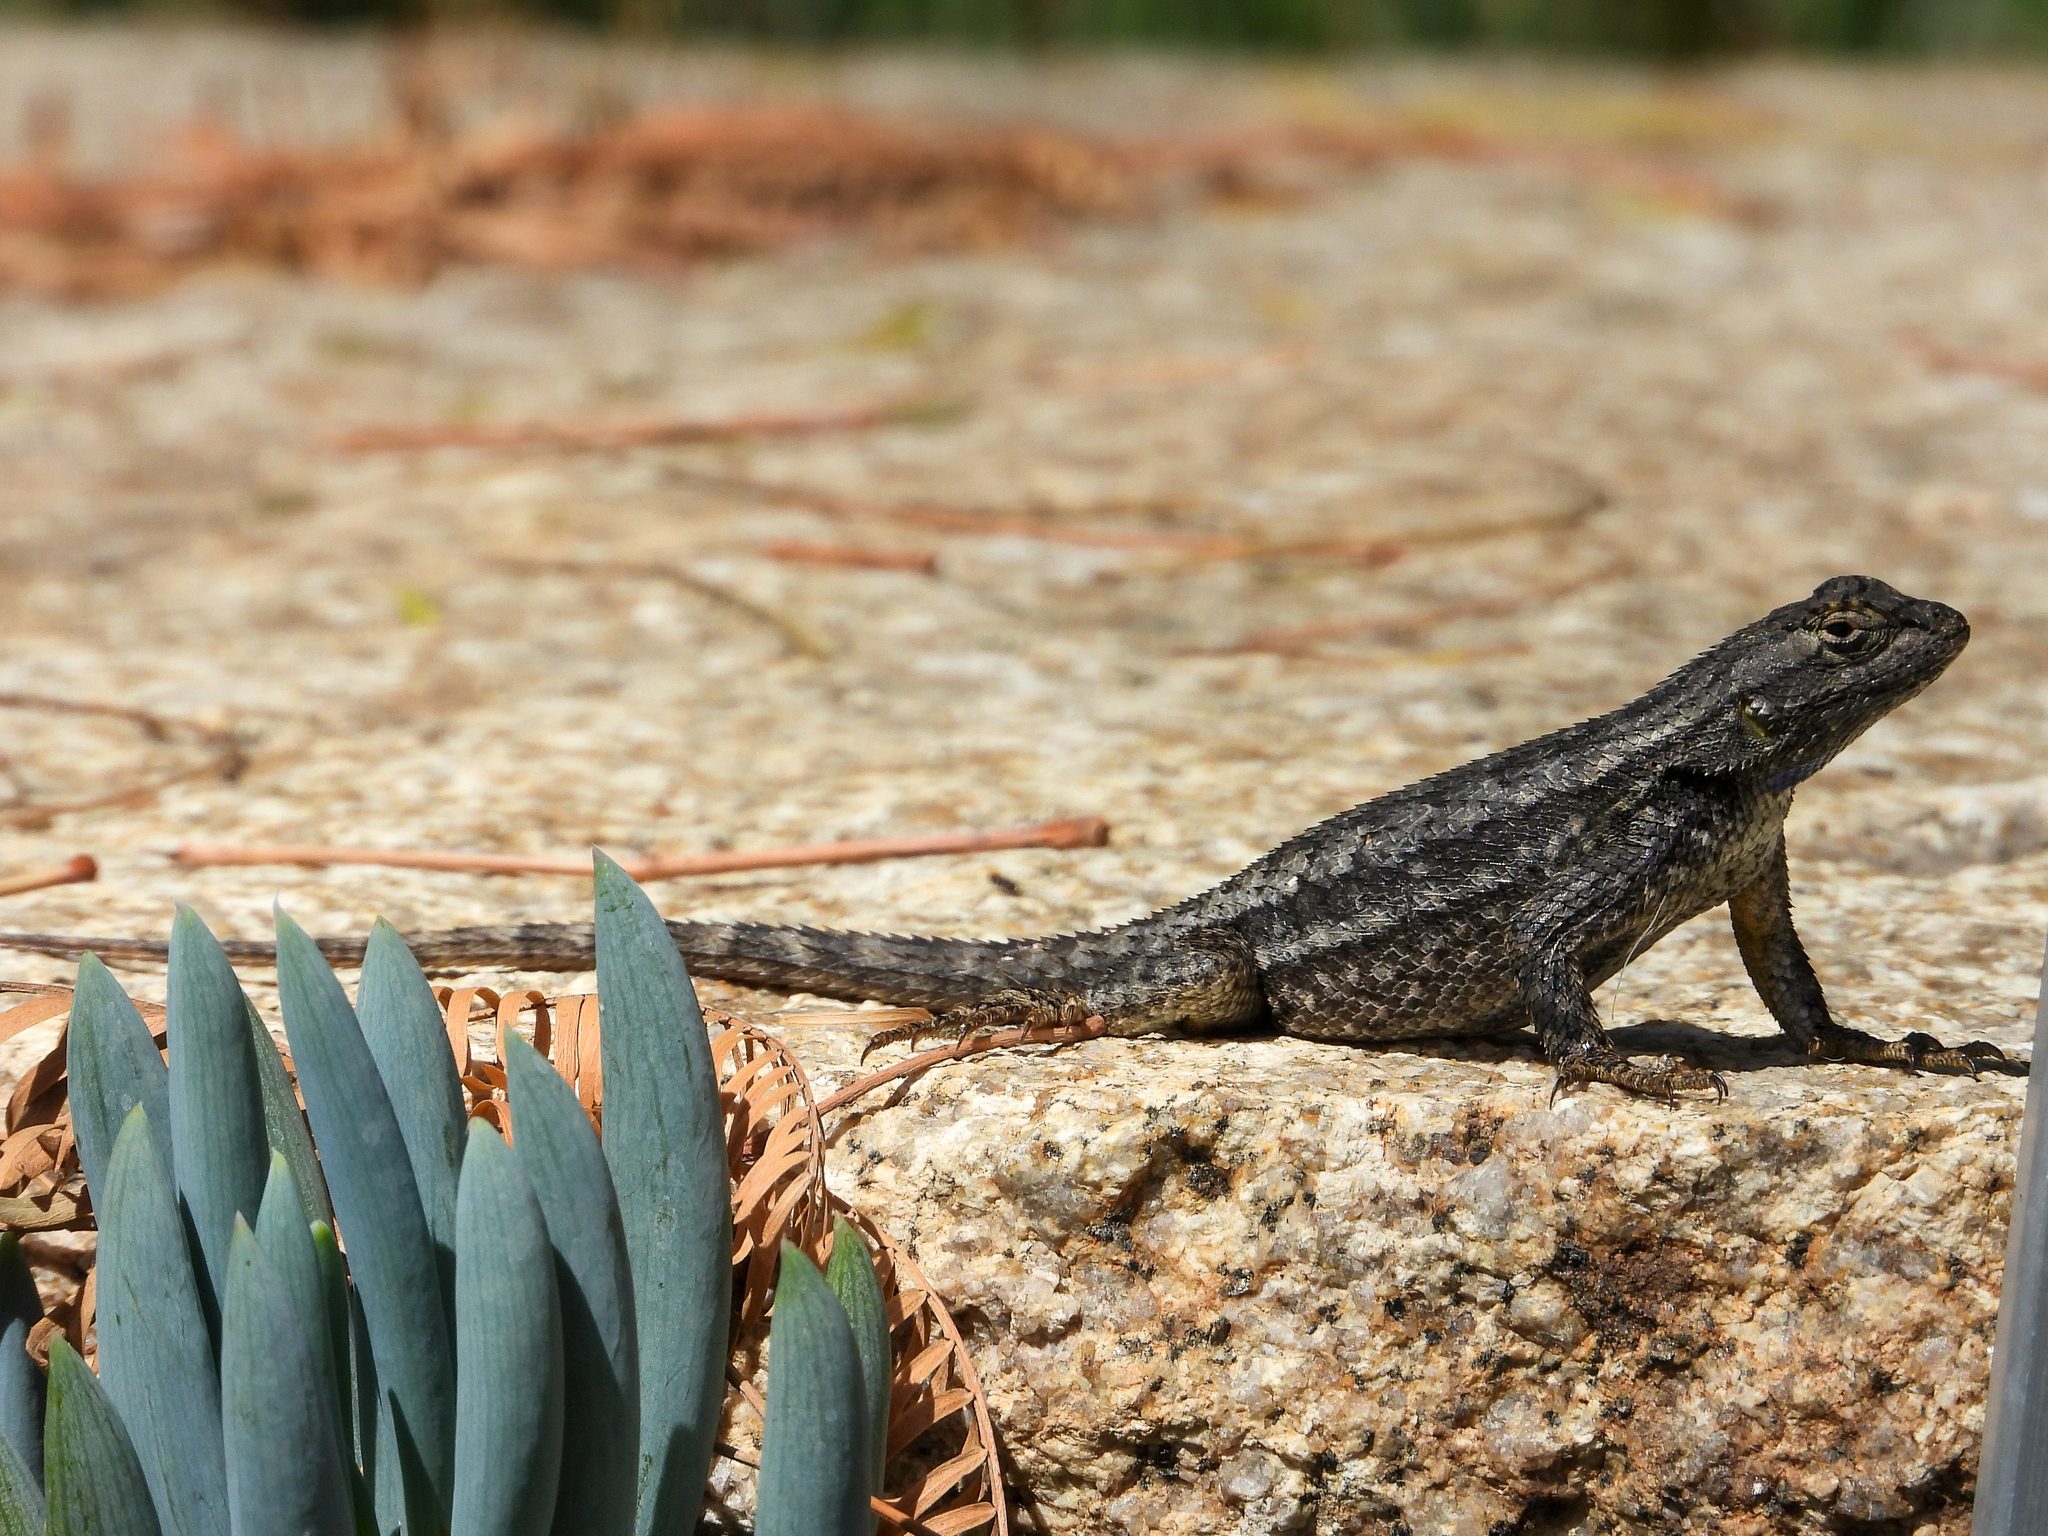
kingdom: Animalia
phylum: Chordata
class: Squamata
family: Phrynosomatidae
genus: Sceloporus
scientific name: Sceloporus occidentalis
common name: Western fence lizard
